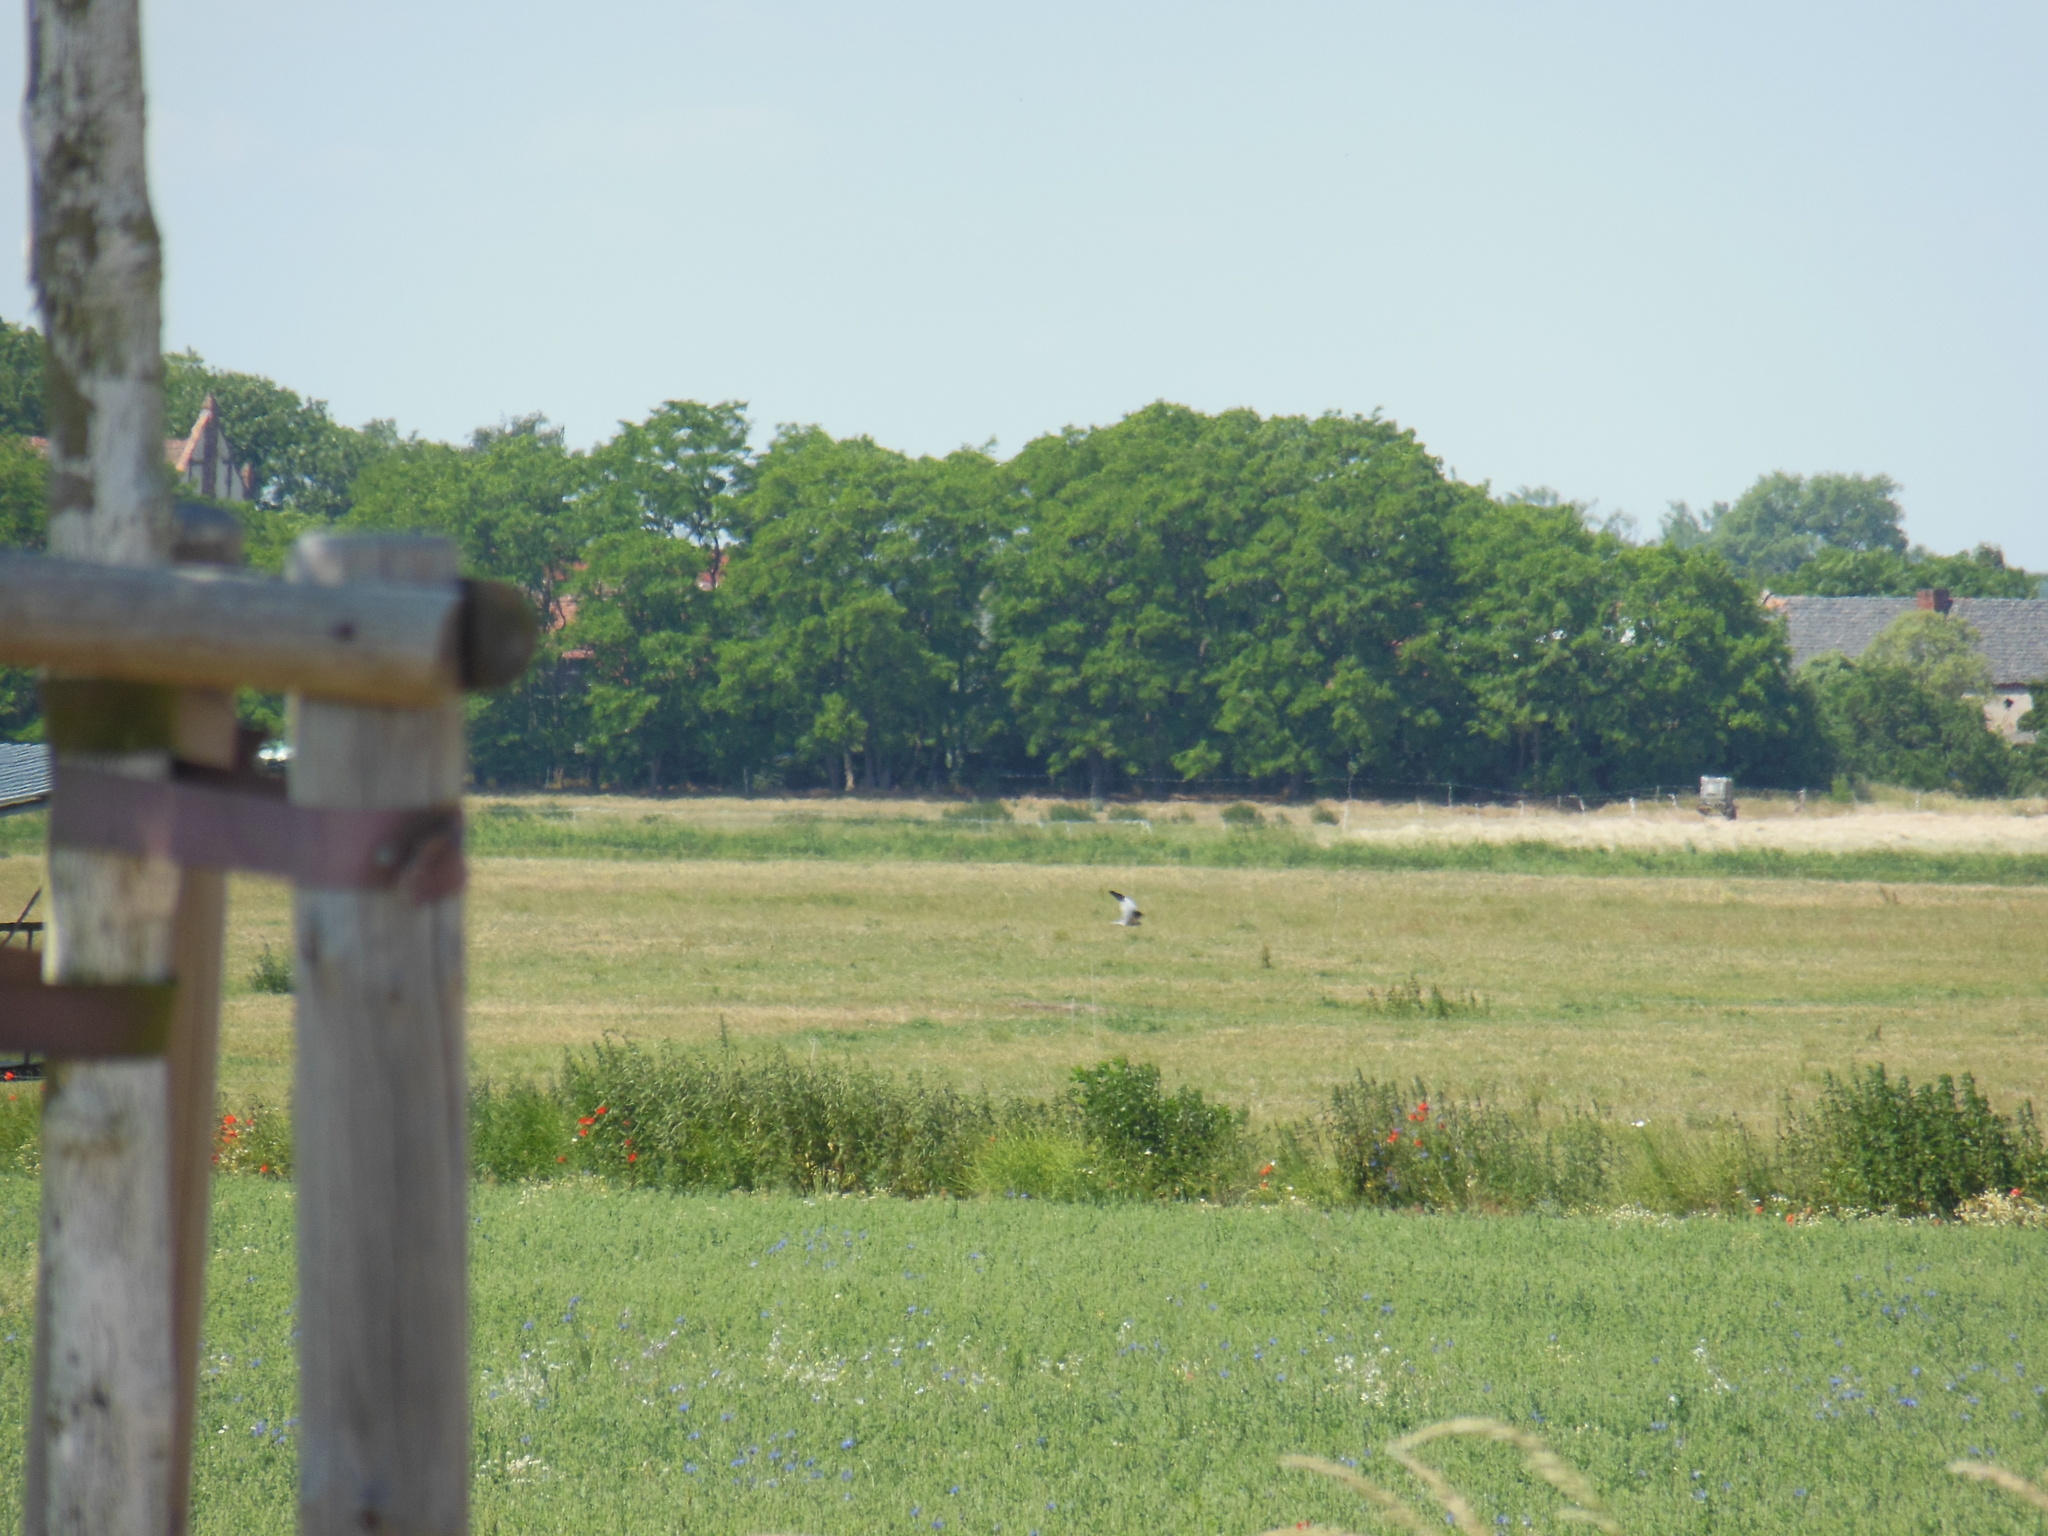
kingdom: Animalia
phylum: Chordata
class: Aves
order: Accipitriformes
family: Accipitridae
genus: Circus
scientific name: Circus pygargus
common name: Montagu's harrier
